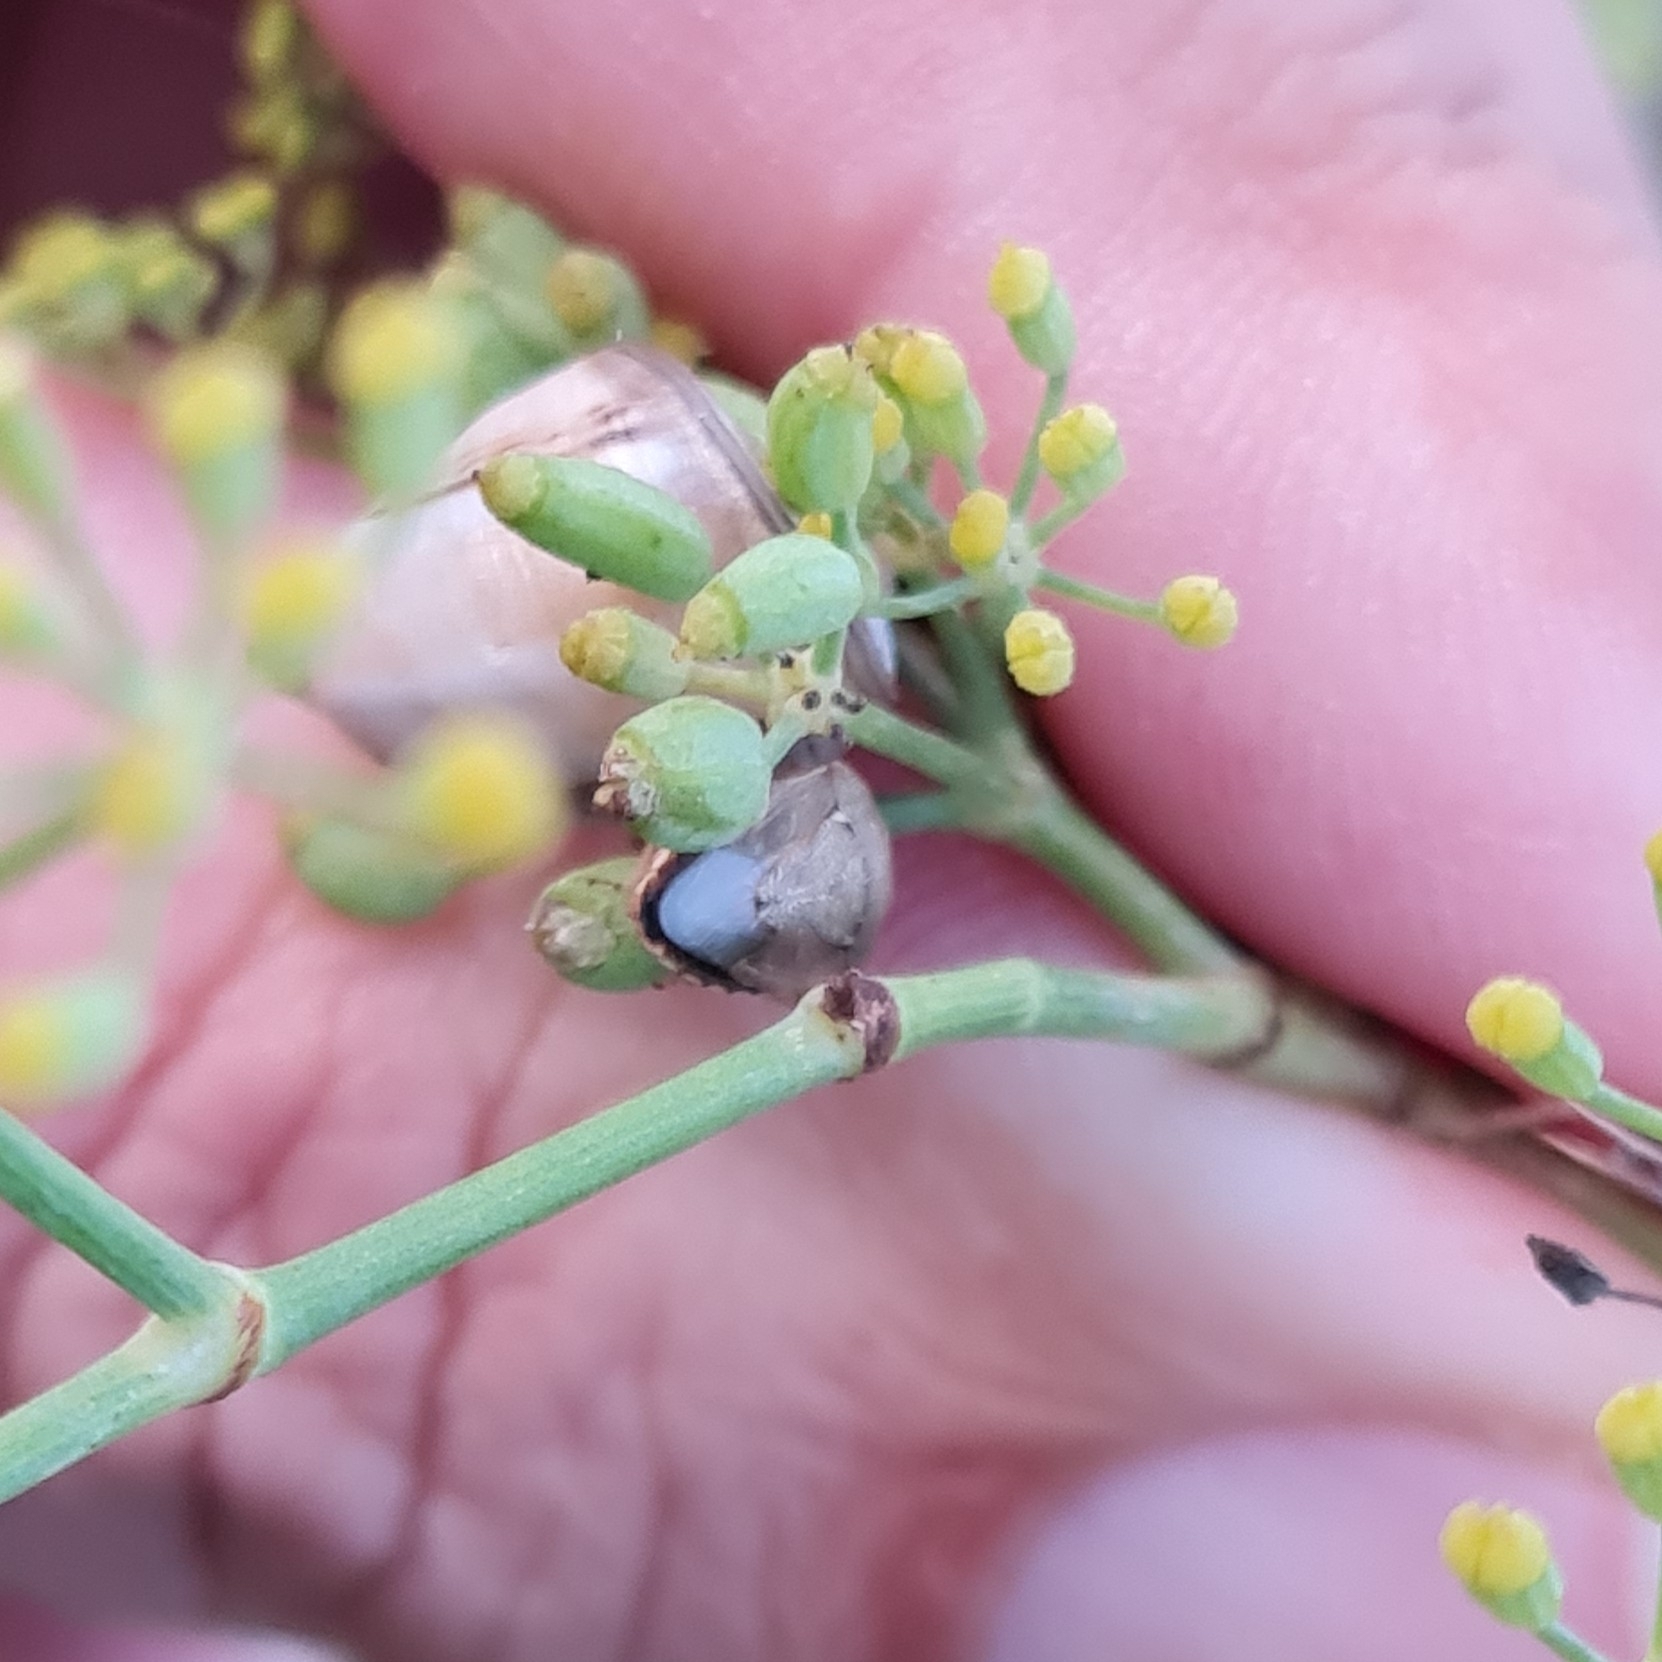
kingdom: Plantae
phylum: Tracheophyta
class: Magnoliopsida
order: Apiales
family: Apiaceae
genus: Foeniculum
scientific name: Foeniculum vulgare
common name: Fennel
